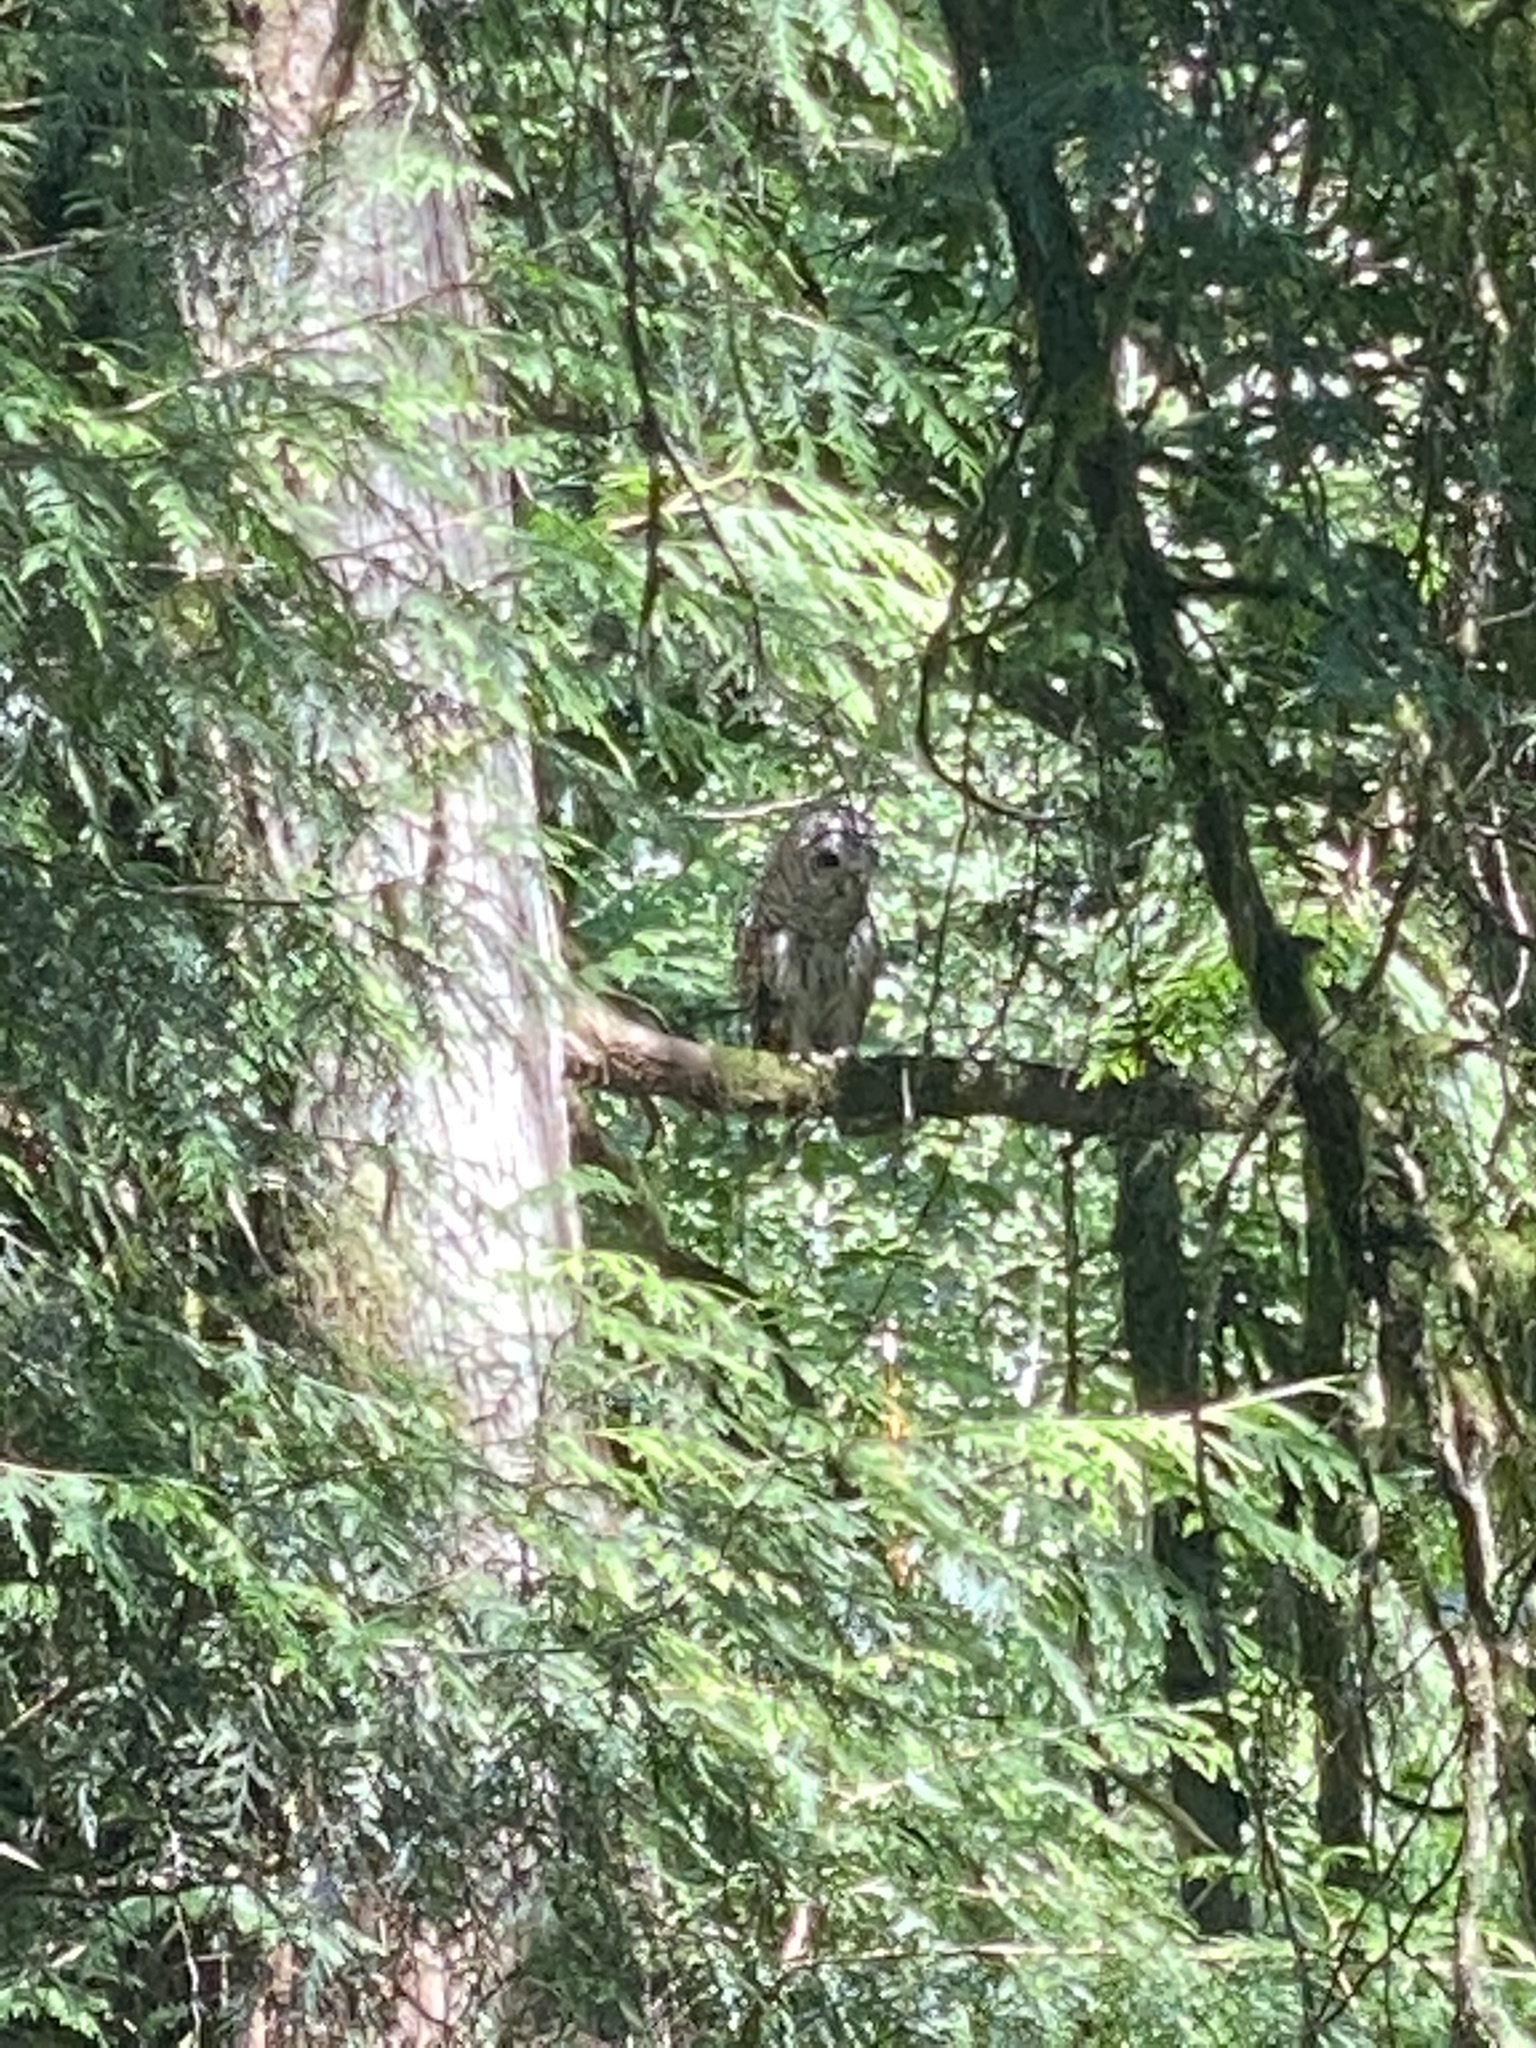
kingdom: Animalia
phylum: Chordata
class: Aves
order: Strigiformes
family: Strigidae
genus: Strix
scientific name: Strix varia
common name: Barred owl
